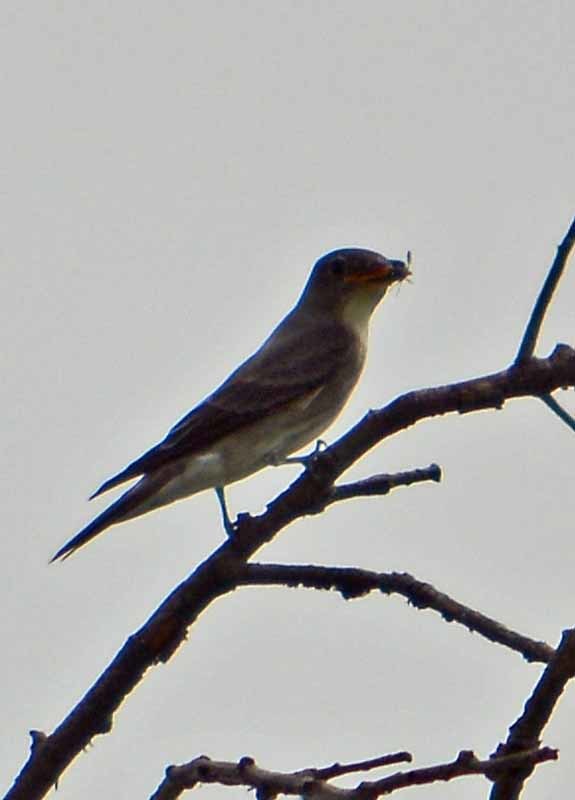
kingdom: Animalia
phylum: Chordata
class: Aves
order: Passeriformes
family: Tyrannidae
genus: Contopus
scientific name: Contopus
